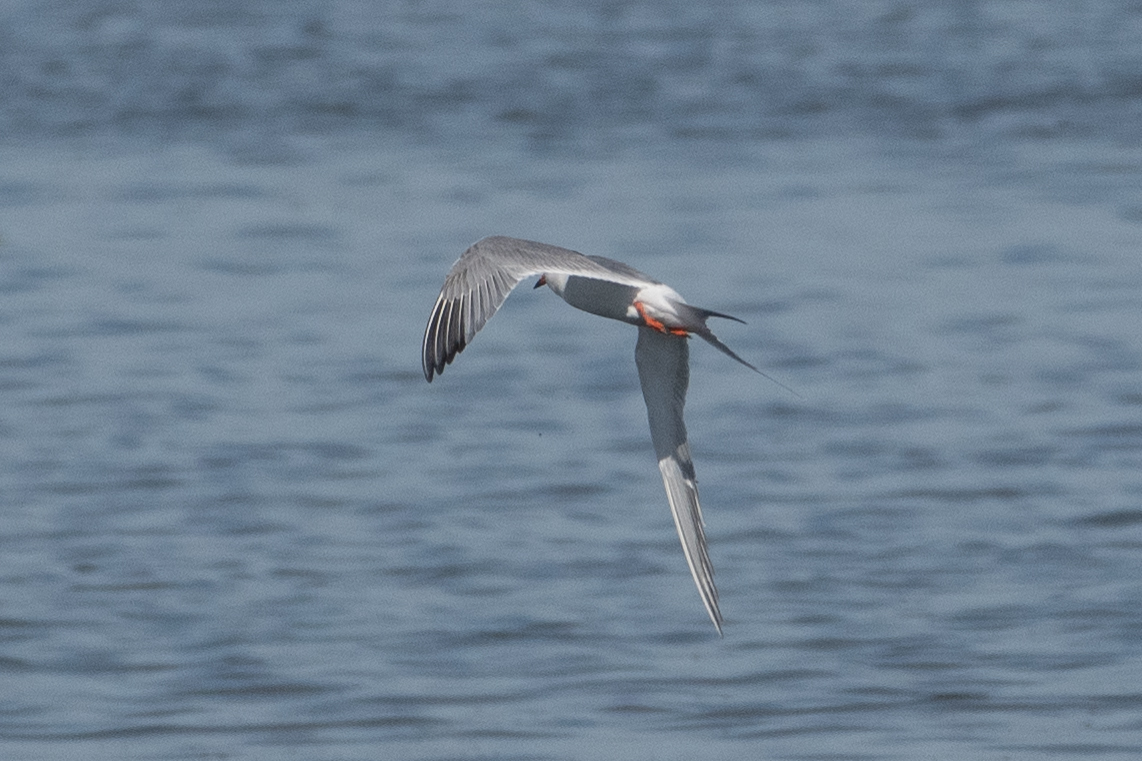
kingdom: Animalia
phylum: Chordata
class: Aves
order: Charadriiformes
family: Laridae
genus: Sterna
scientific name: Sterna forsteri
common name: Forster's tern
